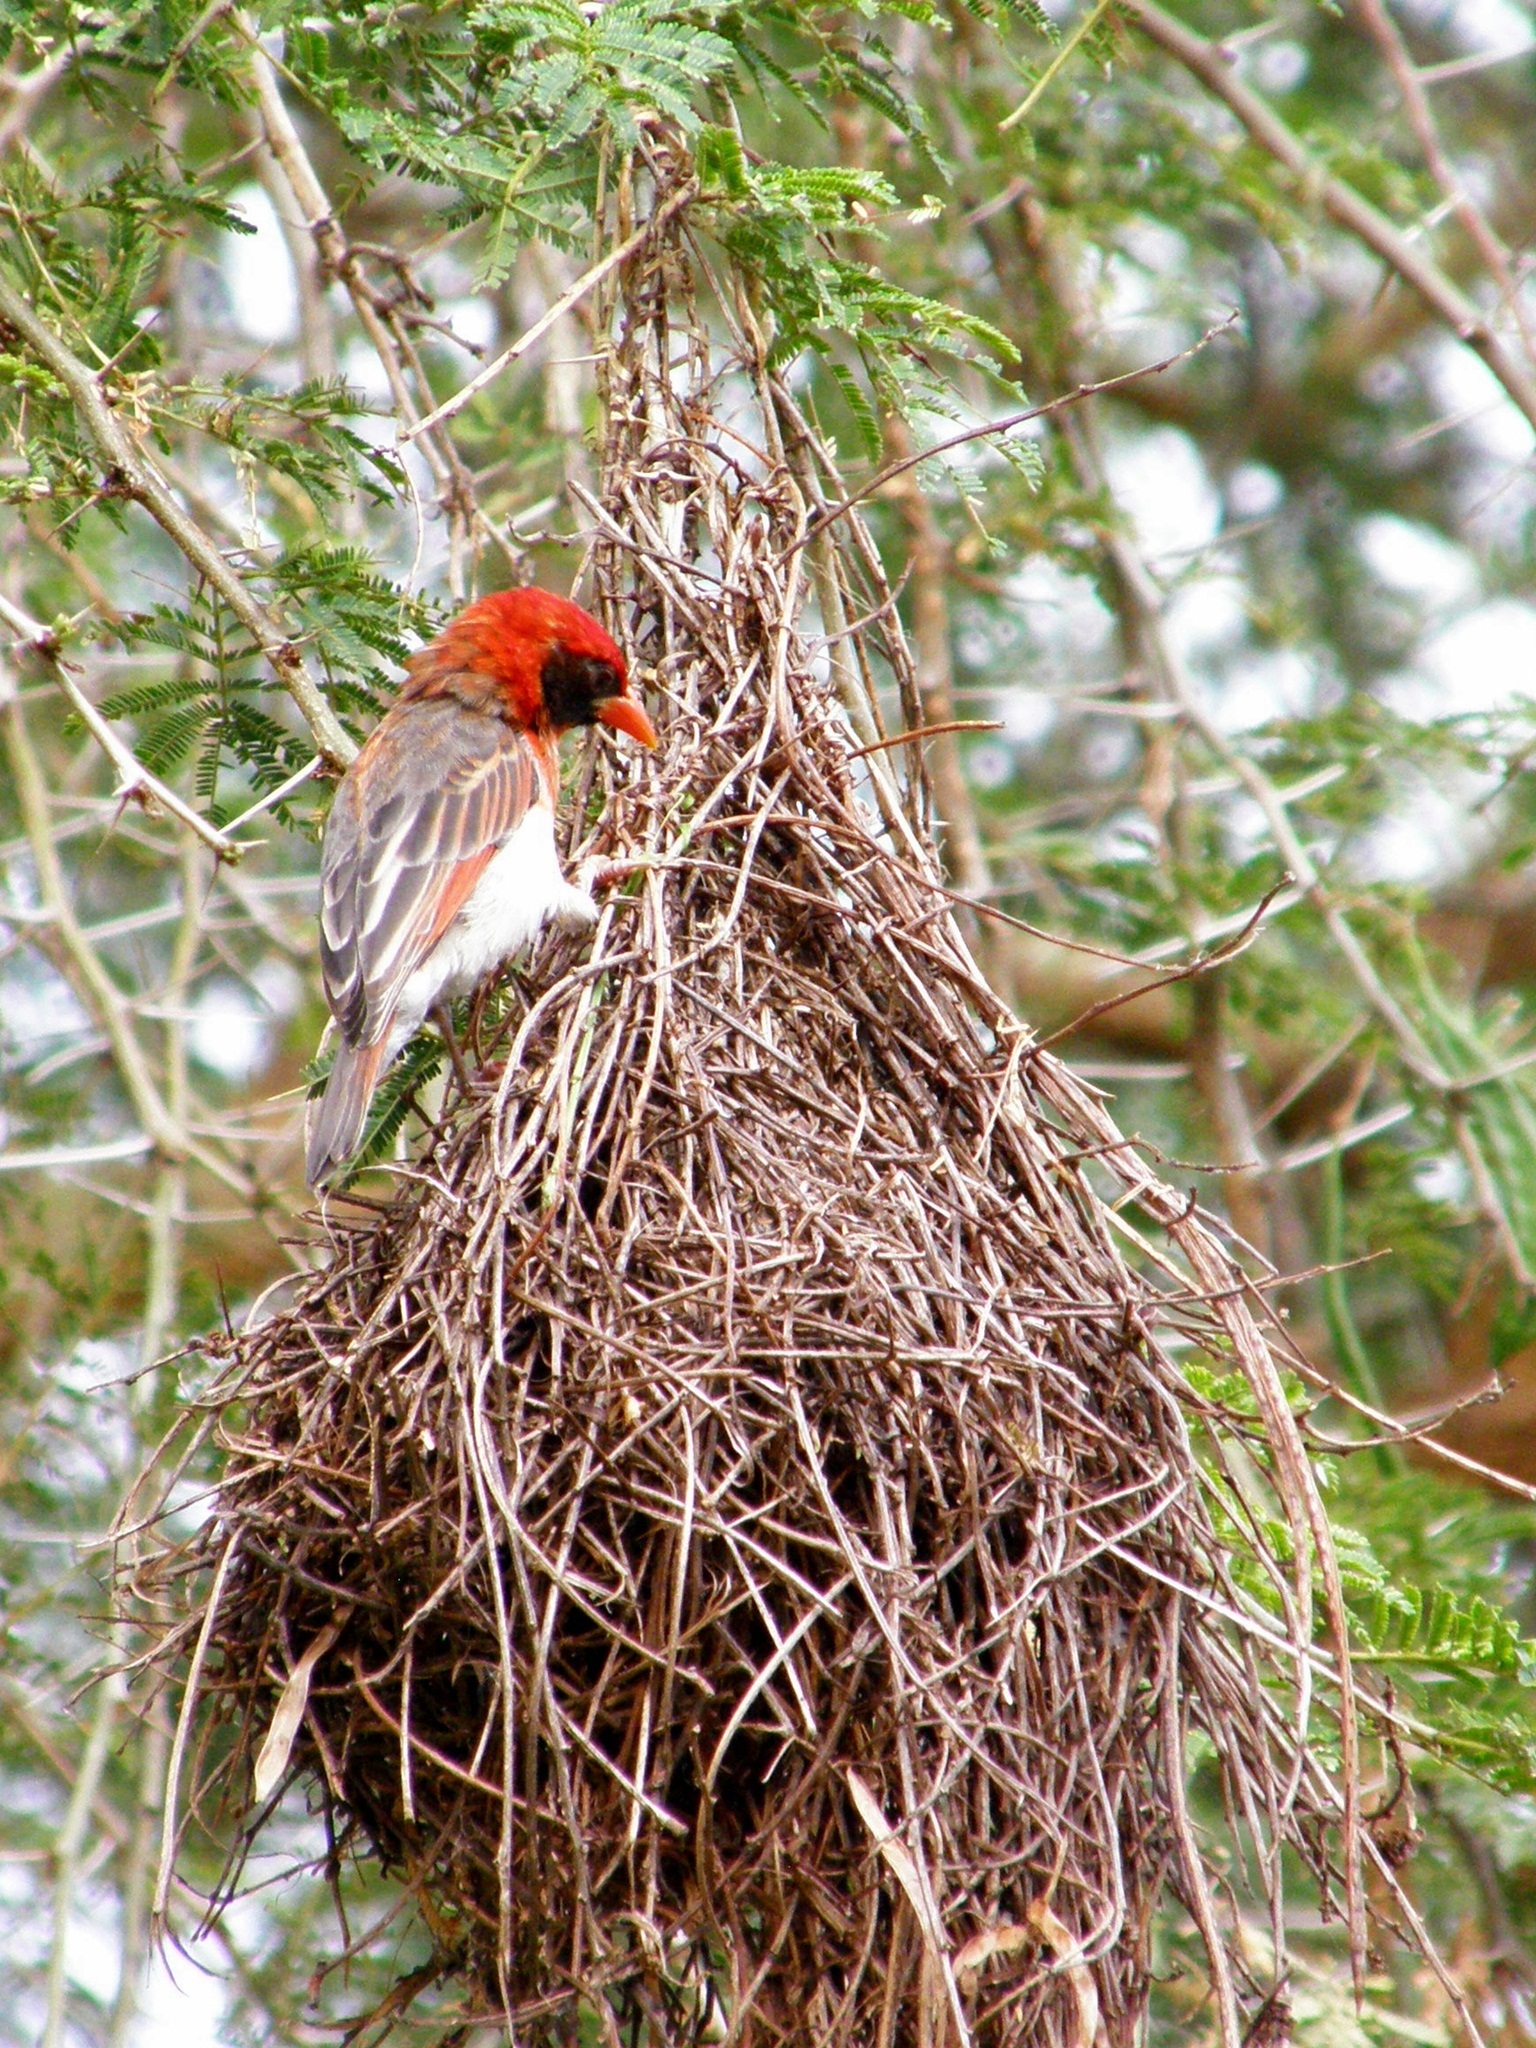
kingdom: Animalia
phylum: Chordata
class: Aves
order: Passeriformes
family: Ploceidae
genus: Anaplectes
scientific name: Anaplectes rubriceps
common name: Red-headed weaver
